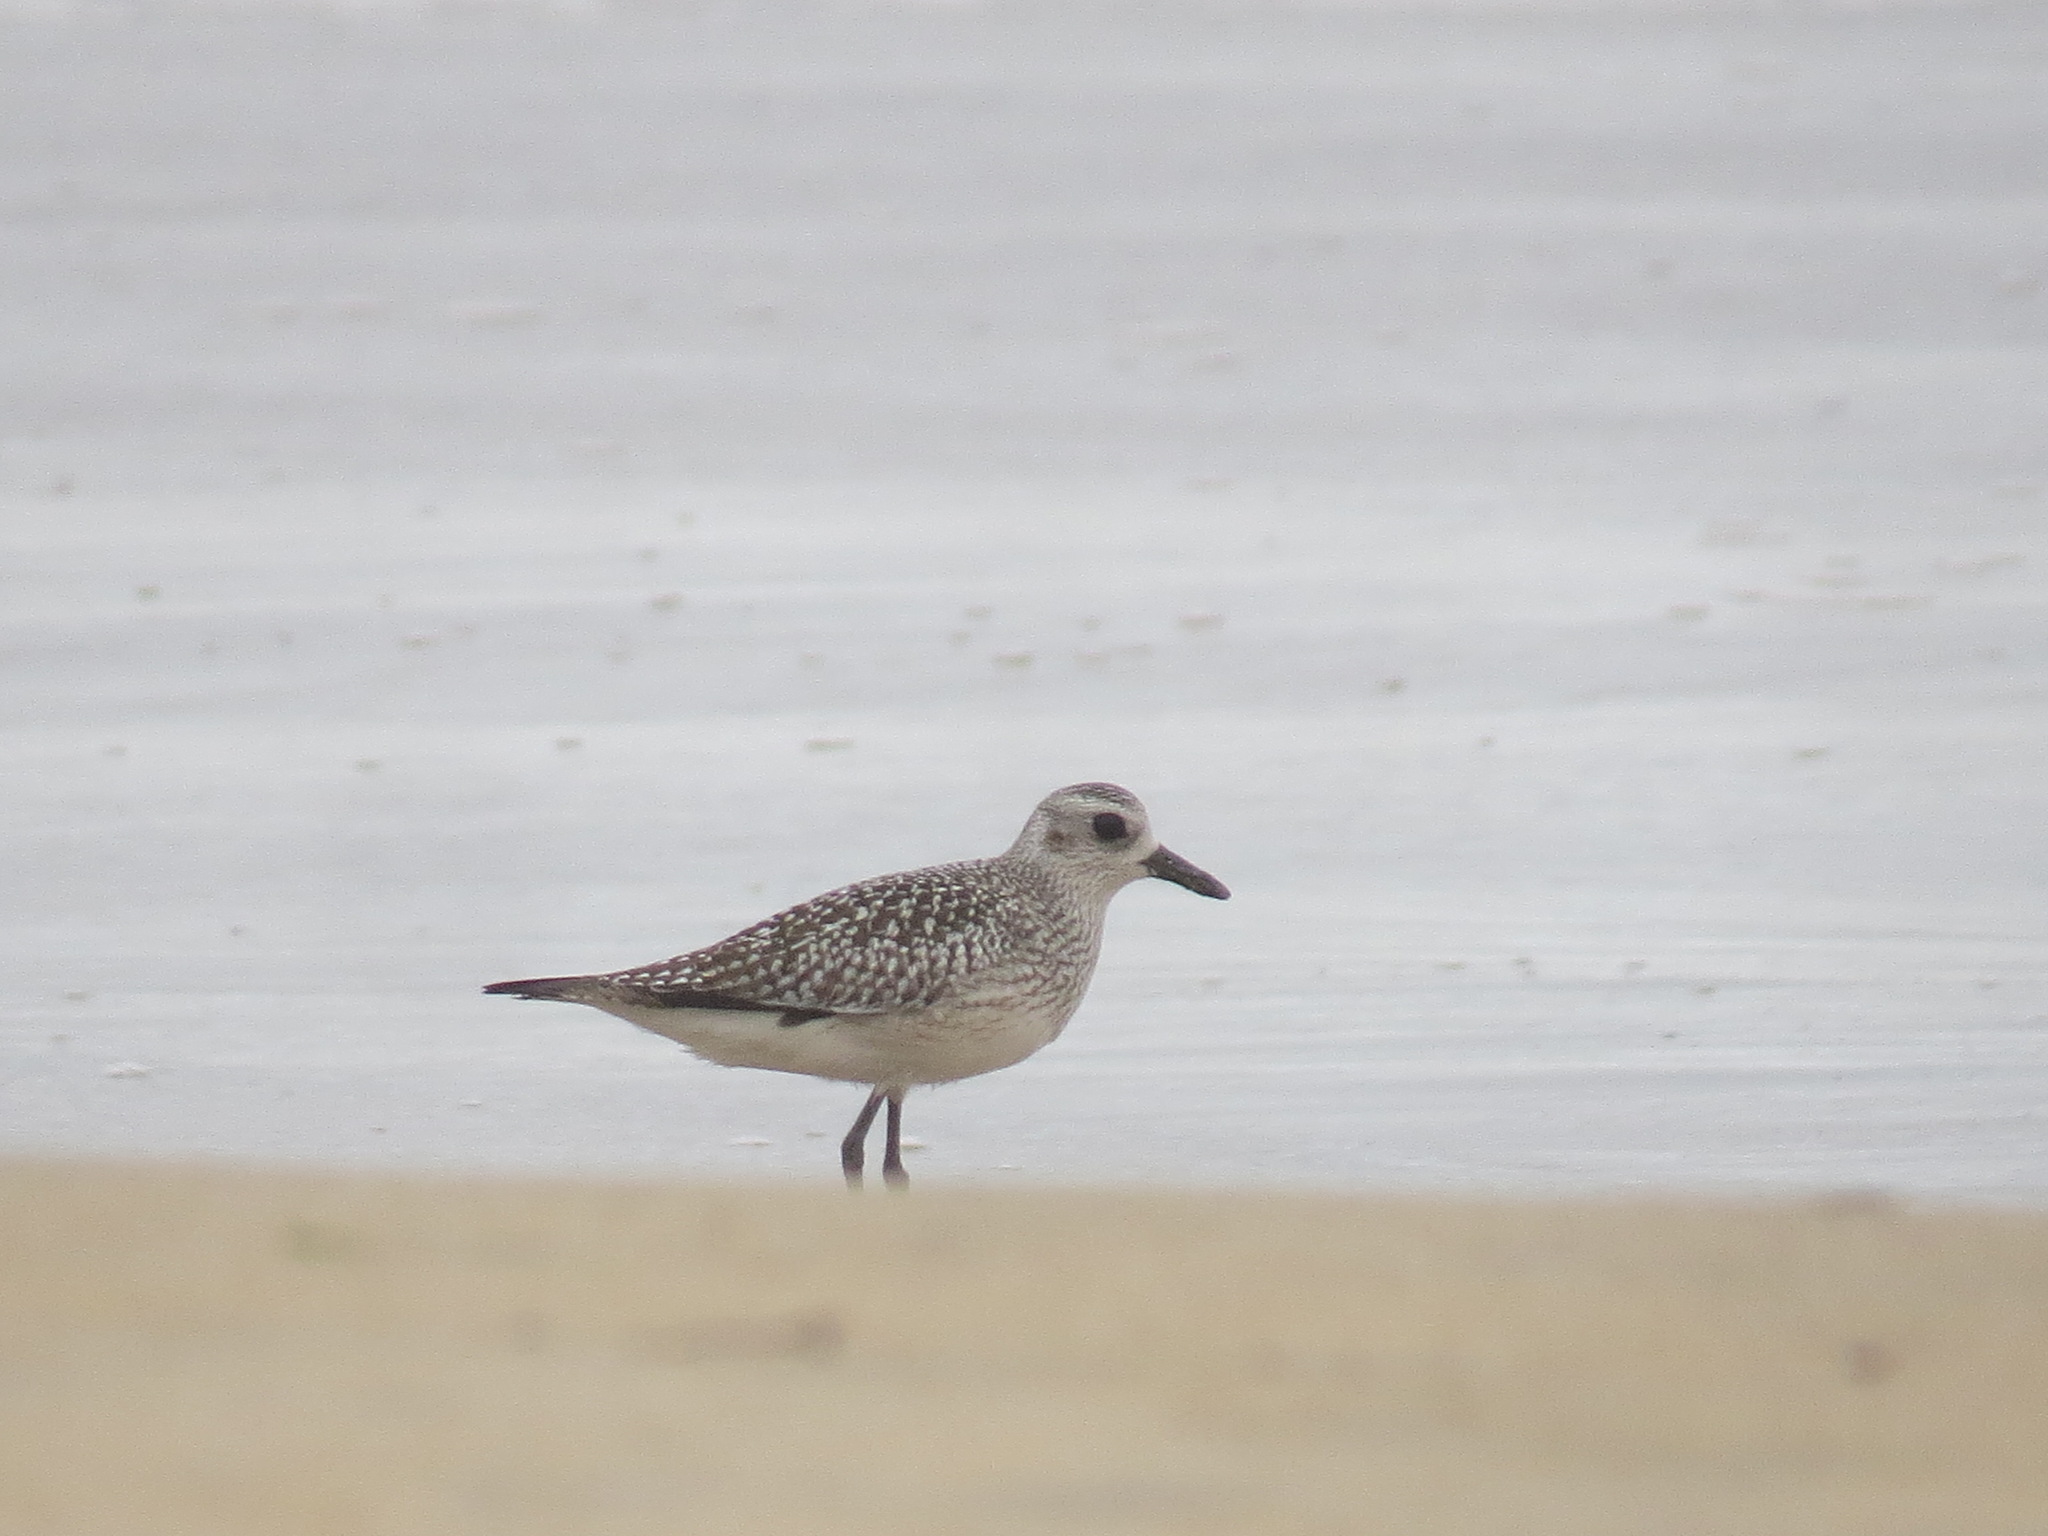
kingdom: Animalia
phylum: Chordata
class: Aves
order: Charadriiformes
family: Charadriidae
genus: Pluvialis
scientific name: Pluvialis squatarola
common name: Grey plover
